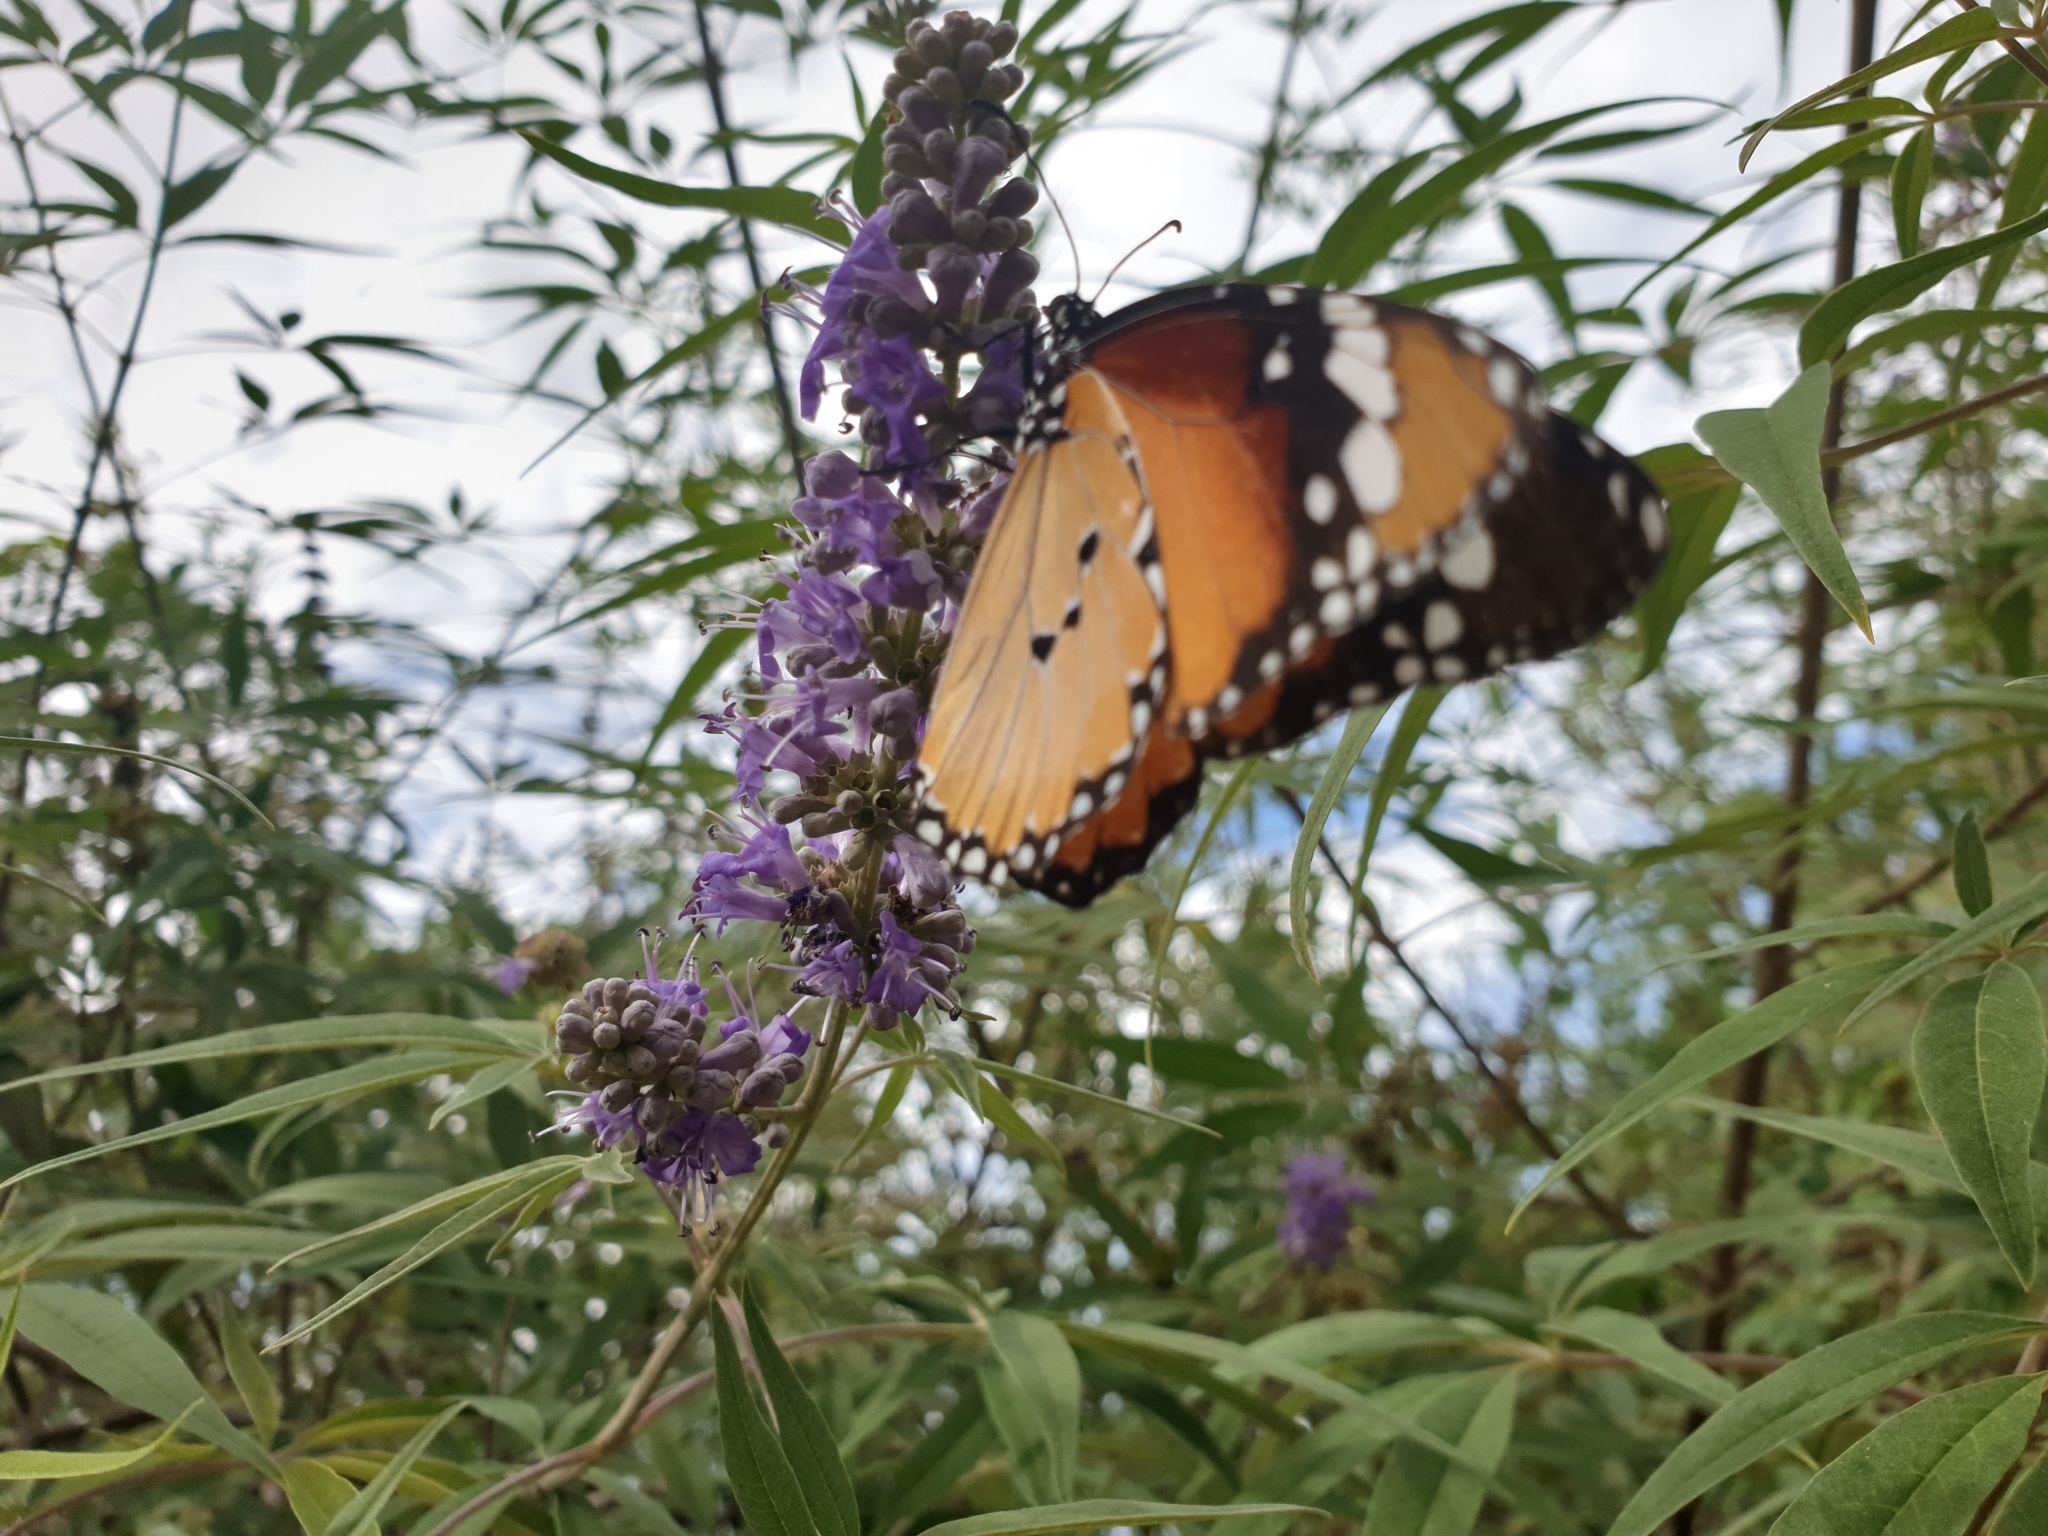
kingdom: Animalia
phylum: Arthropoda
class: Insecta
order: Lepidoptera
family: Nymphalidae
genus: Danaus
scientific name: Danaus chrysippus
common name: Plain tiger
